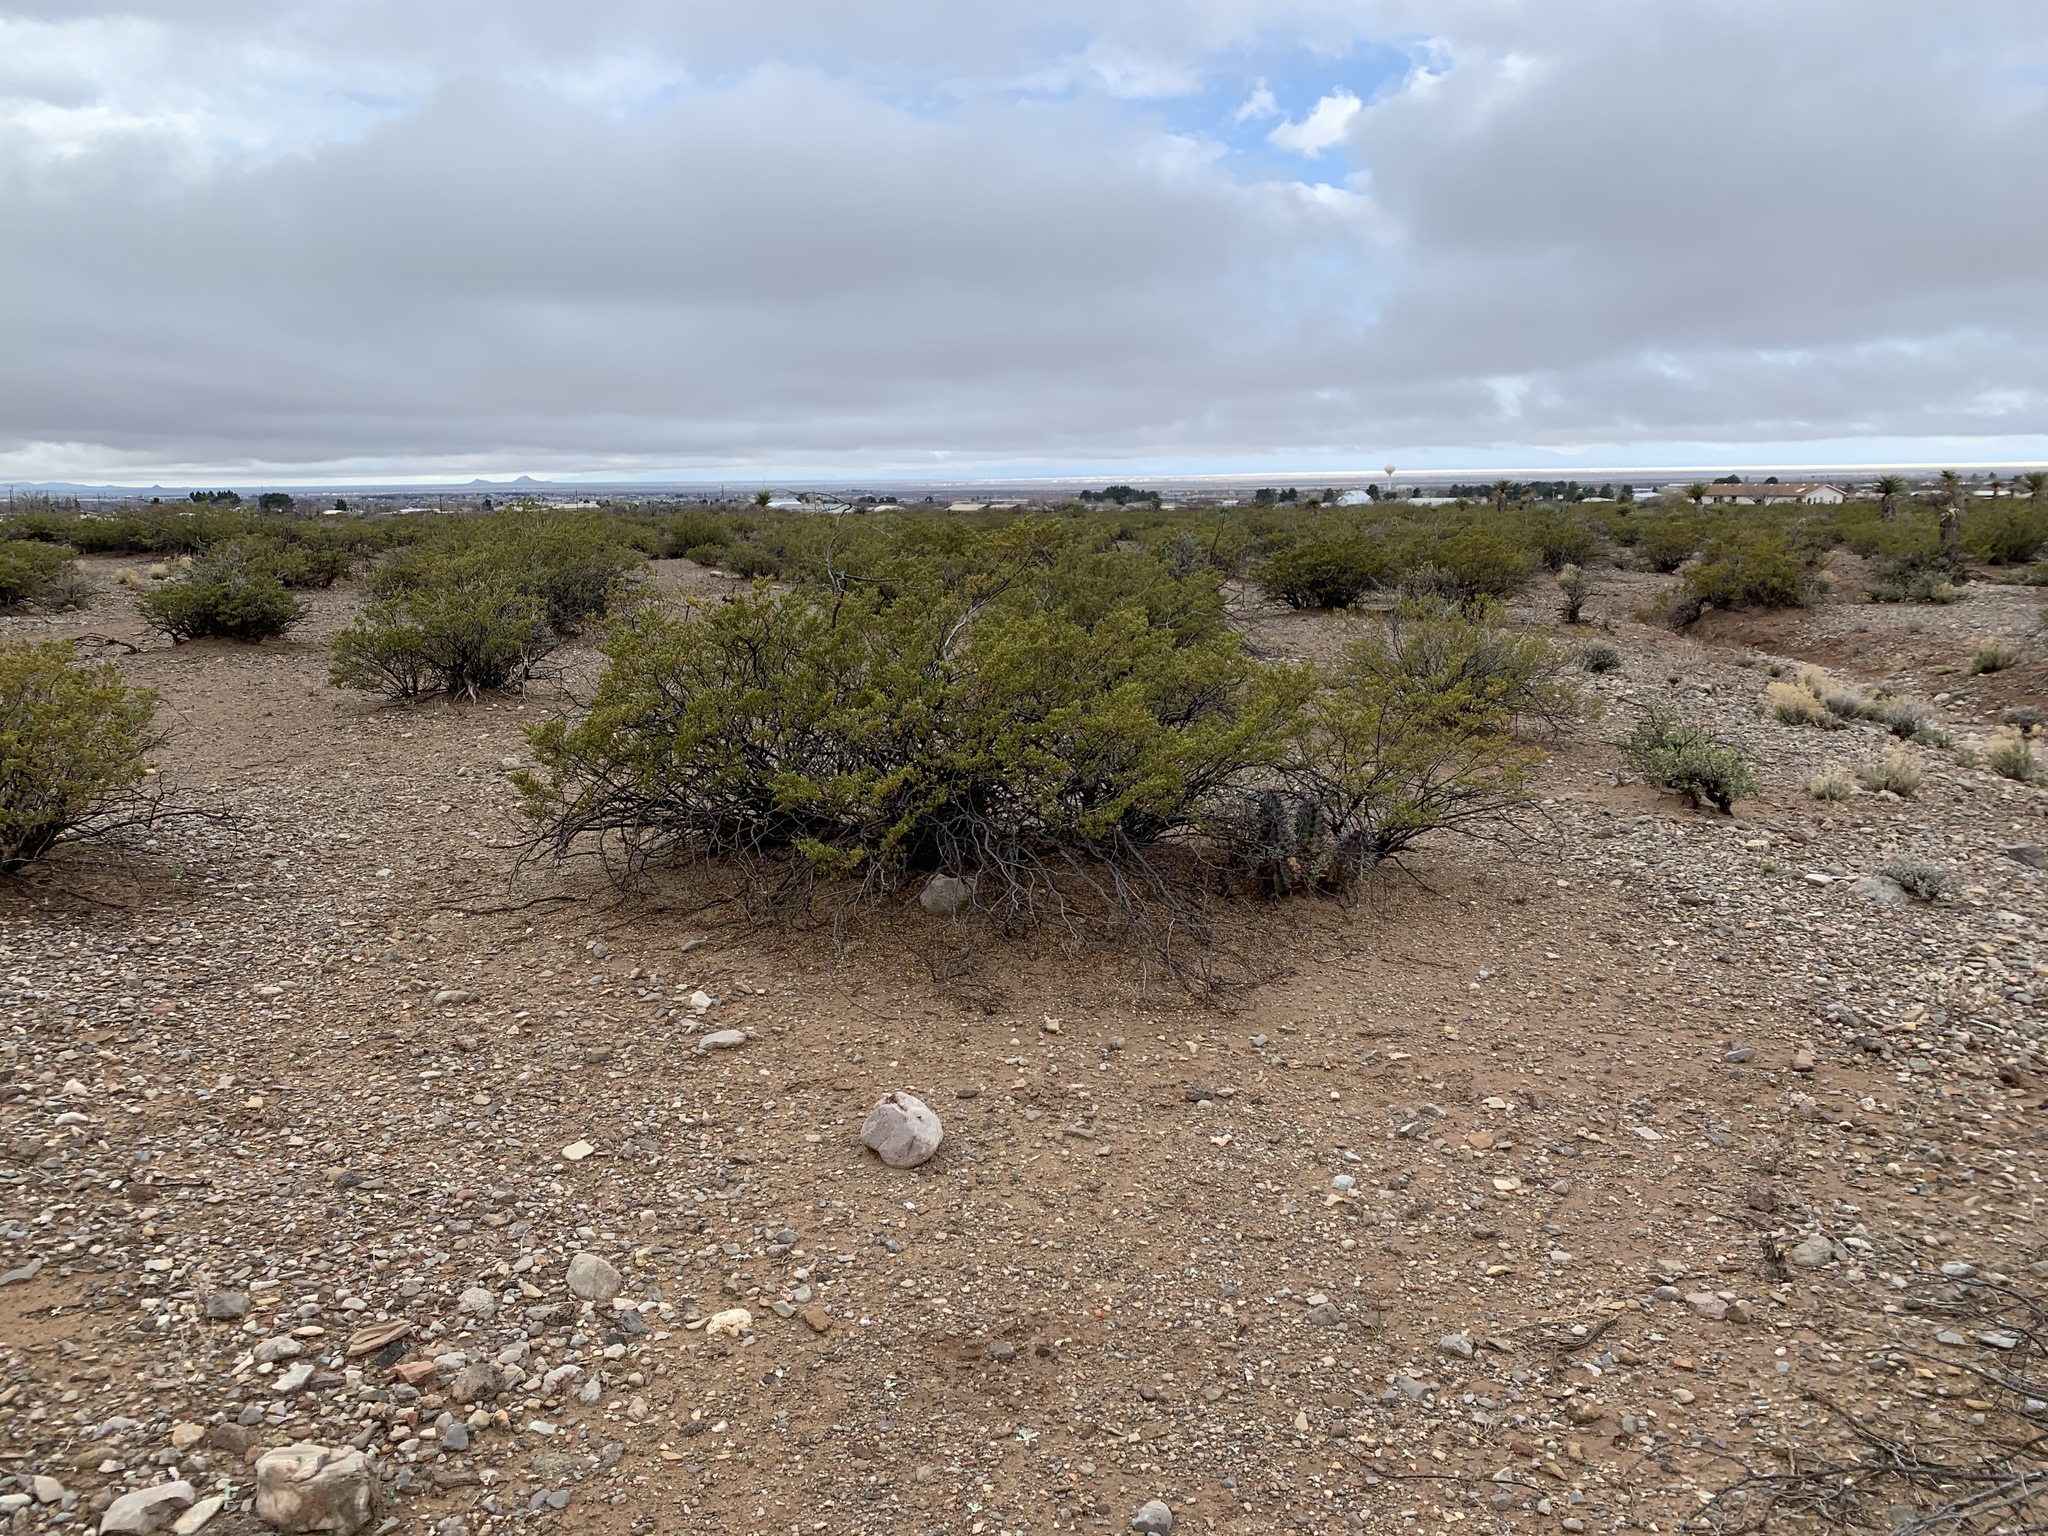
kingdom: Plantae
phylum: Tracheophyta
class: Magnoliopsida
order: Zygophyllales
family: Zygophyllaceae
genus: Larrea
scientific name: Larrea tridentata
